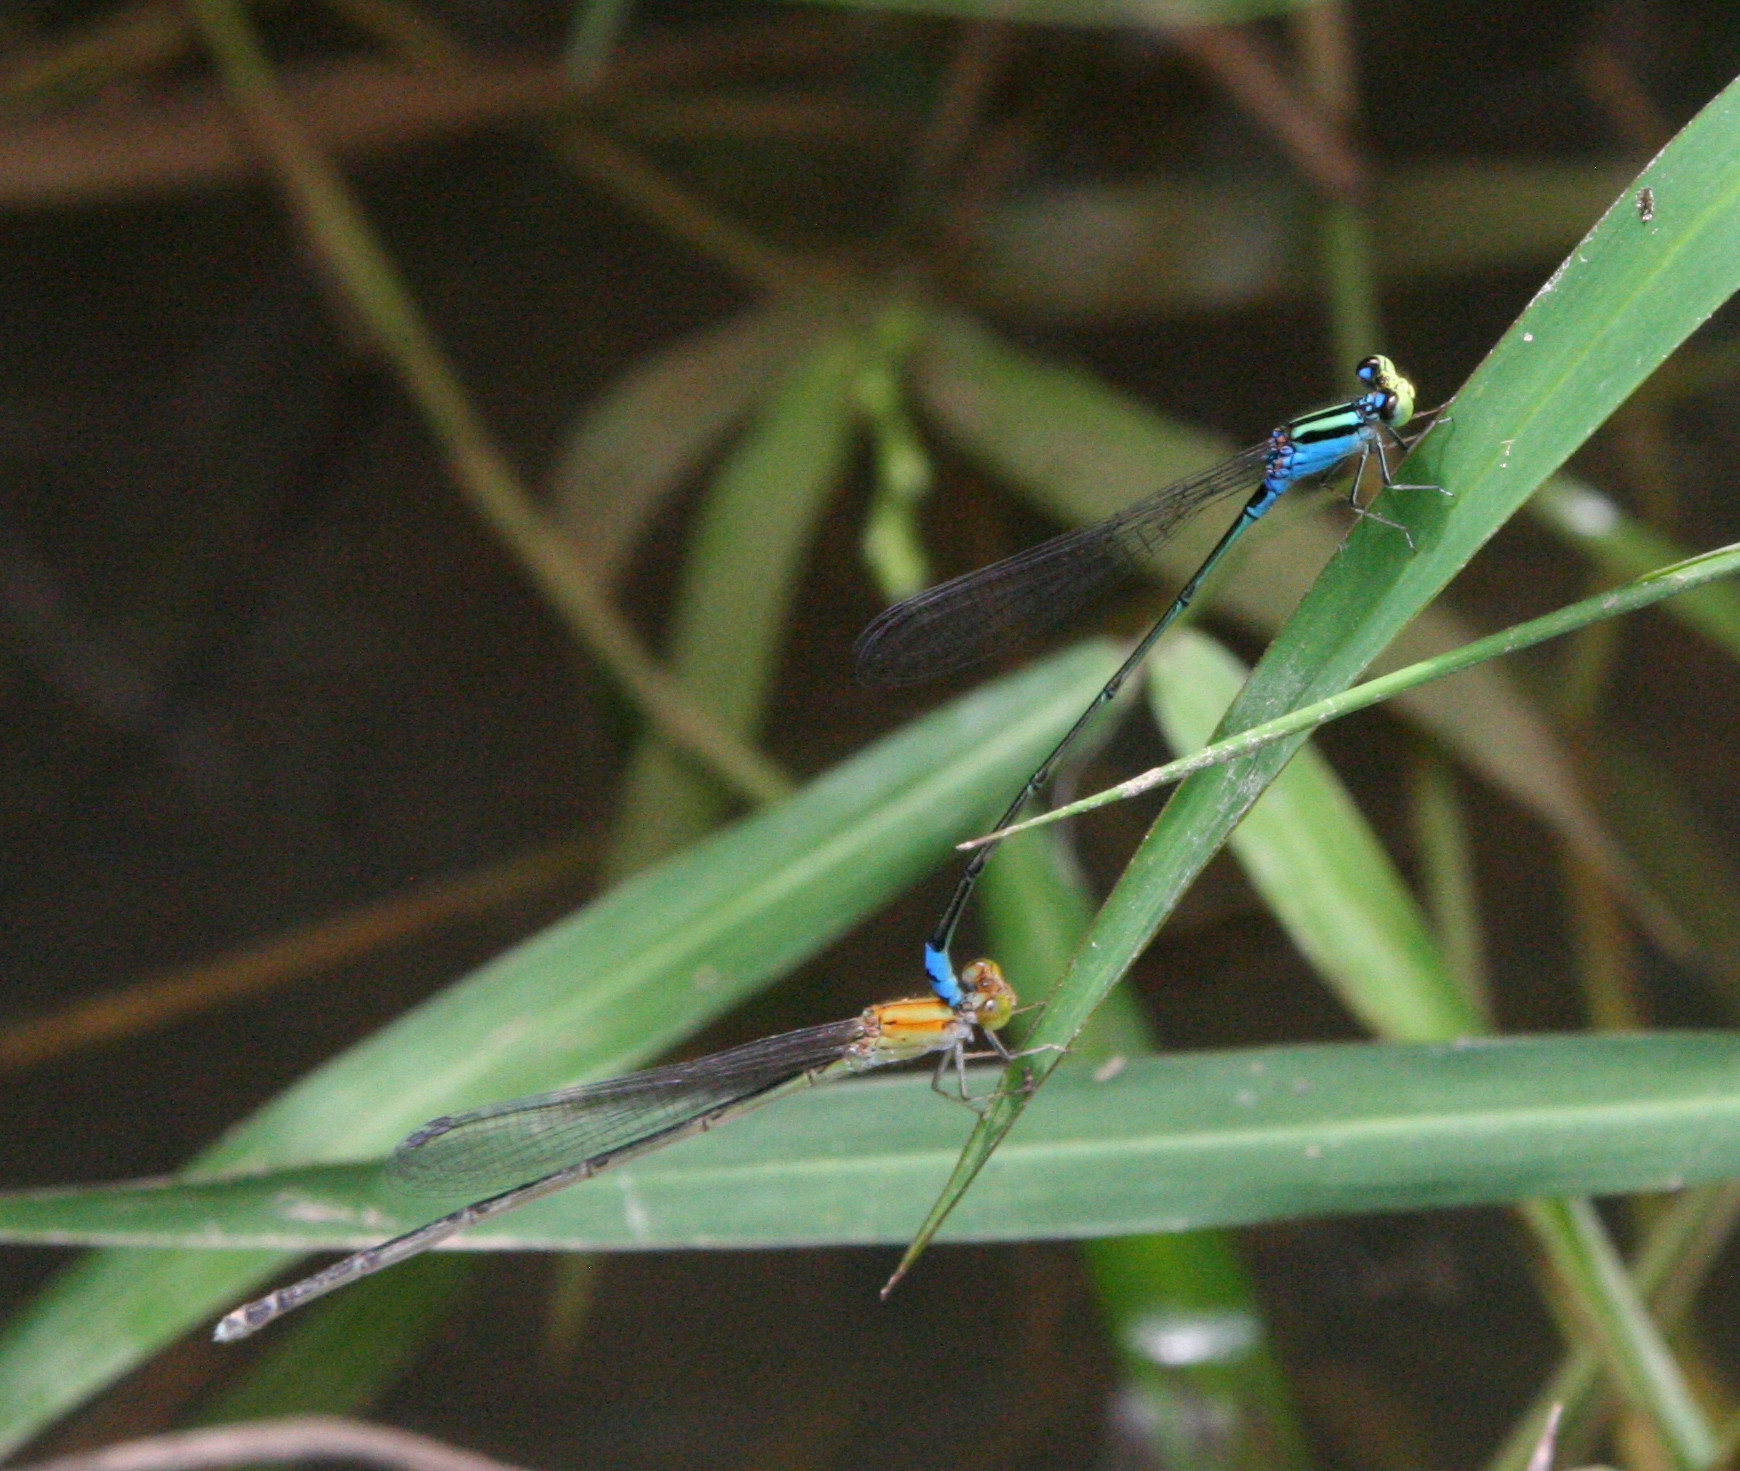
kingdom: Animalia
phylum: Arthropoda
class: Insecta
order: Odonata
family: Coenagrionidae
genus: Pseudagrion
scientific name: Pseudagrion williamsoni
